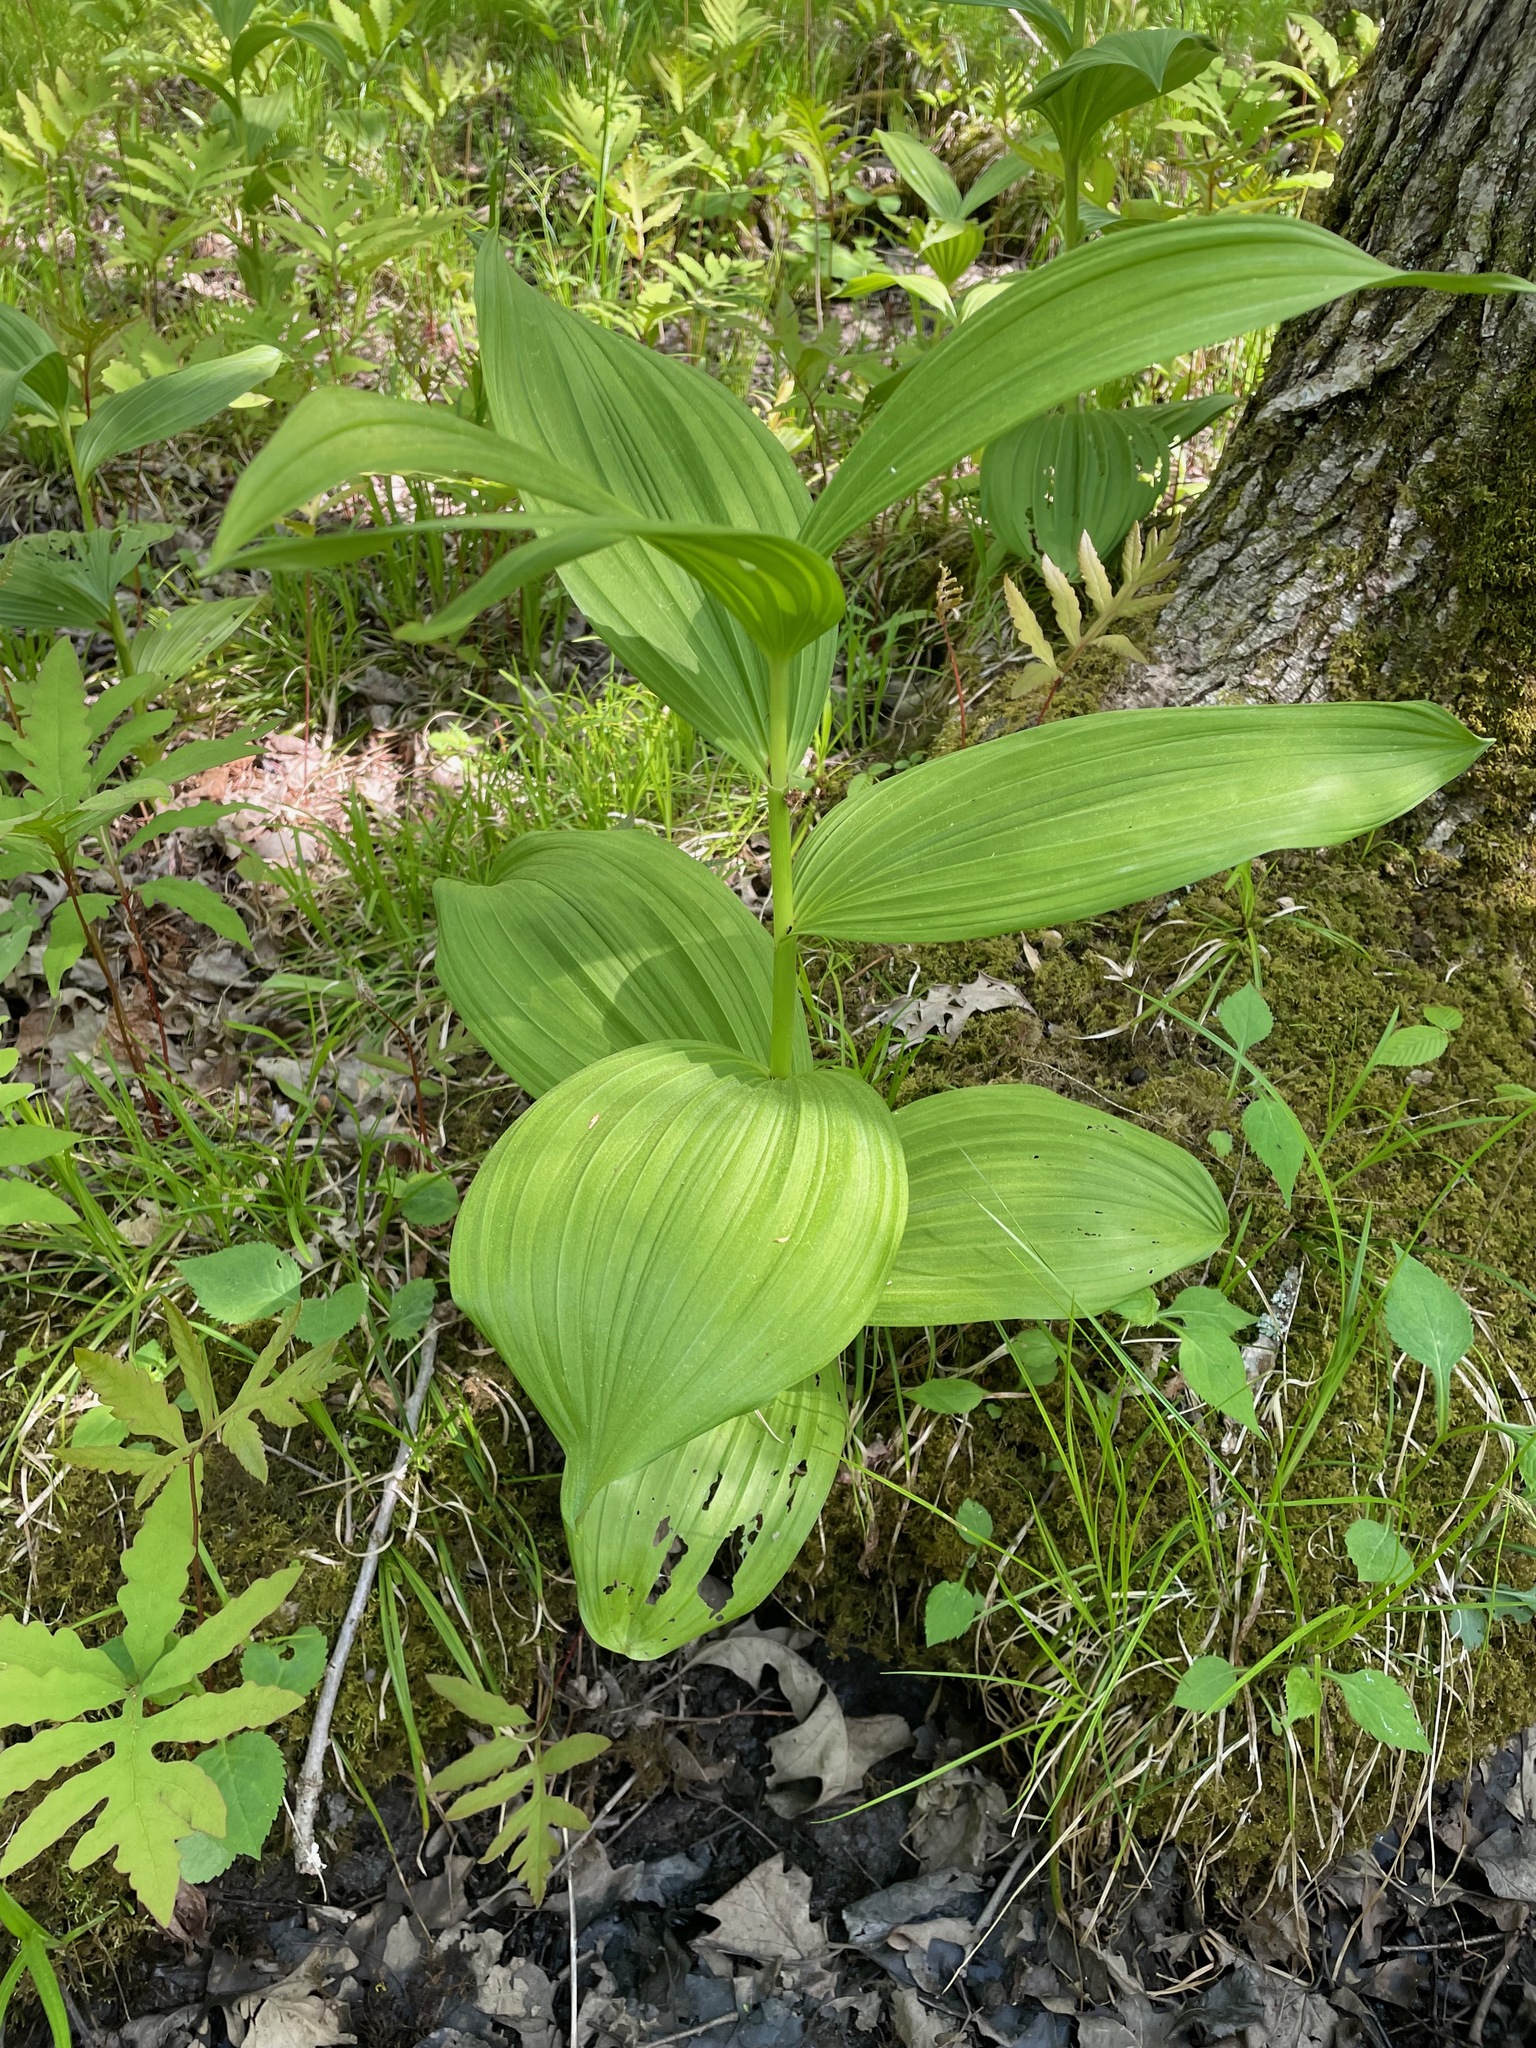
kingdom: Plantae
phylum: Tracheophyta
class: Liliopsida
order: Liliales
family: Melanthiaceae
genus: Veratrum
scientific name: Veratrum viride
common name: American false hellebore
